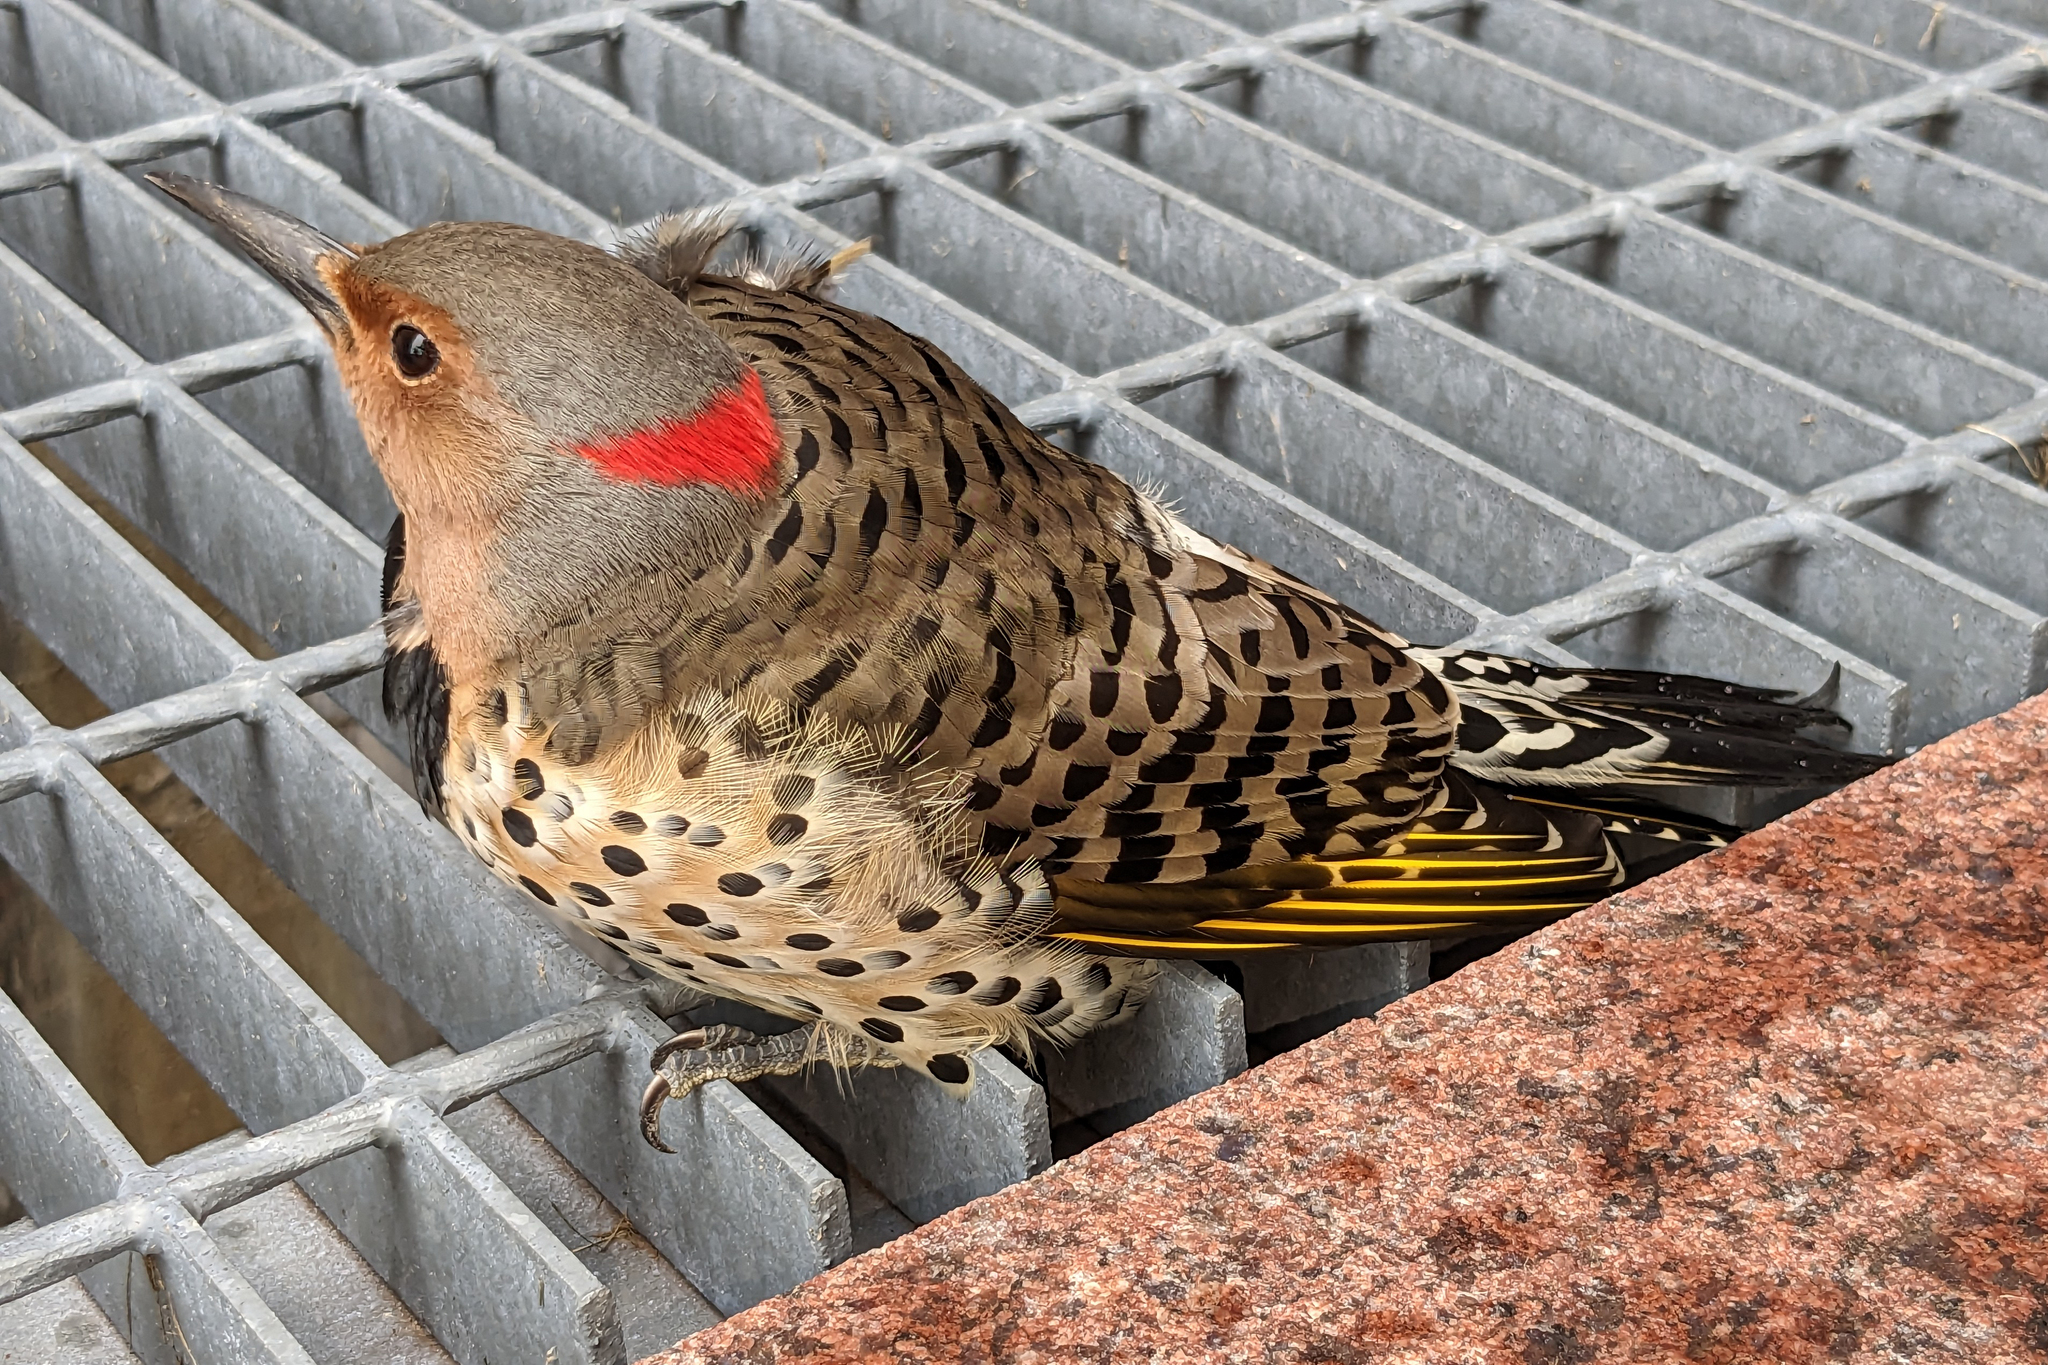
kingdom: Animalia
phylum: Chordata
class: Aves
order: Piciformes
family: Picidae
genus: Colaptes
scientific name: Colaptes auratus
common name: Northern flicker
